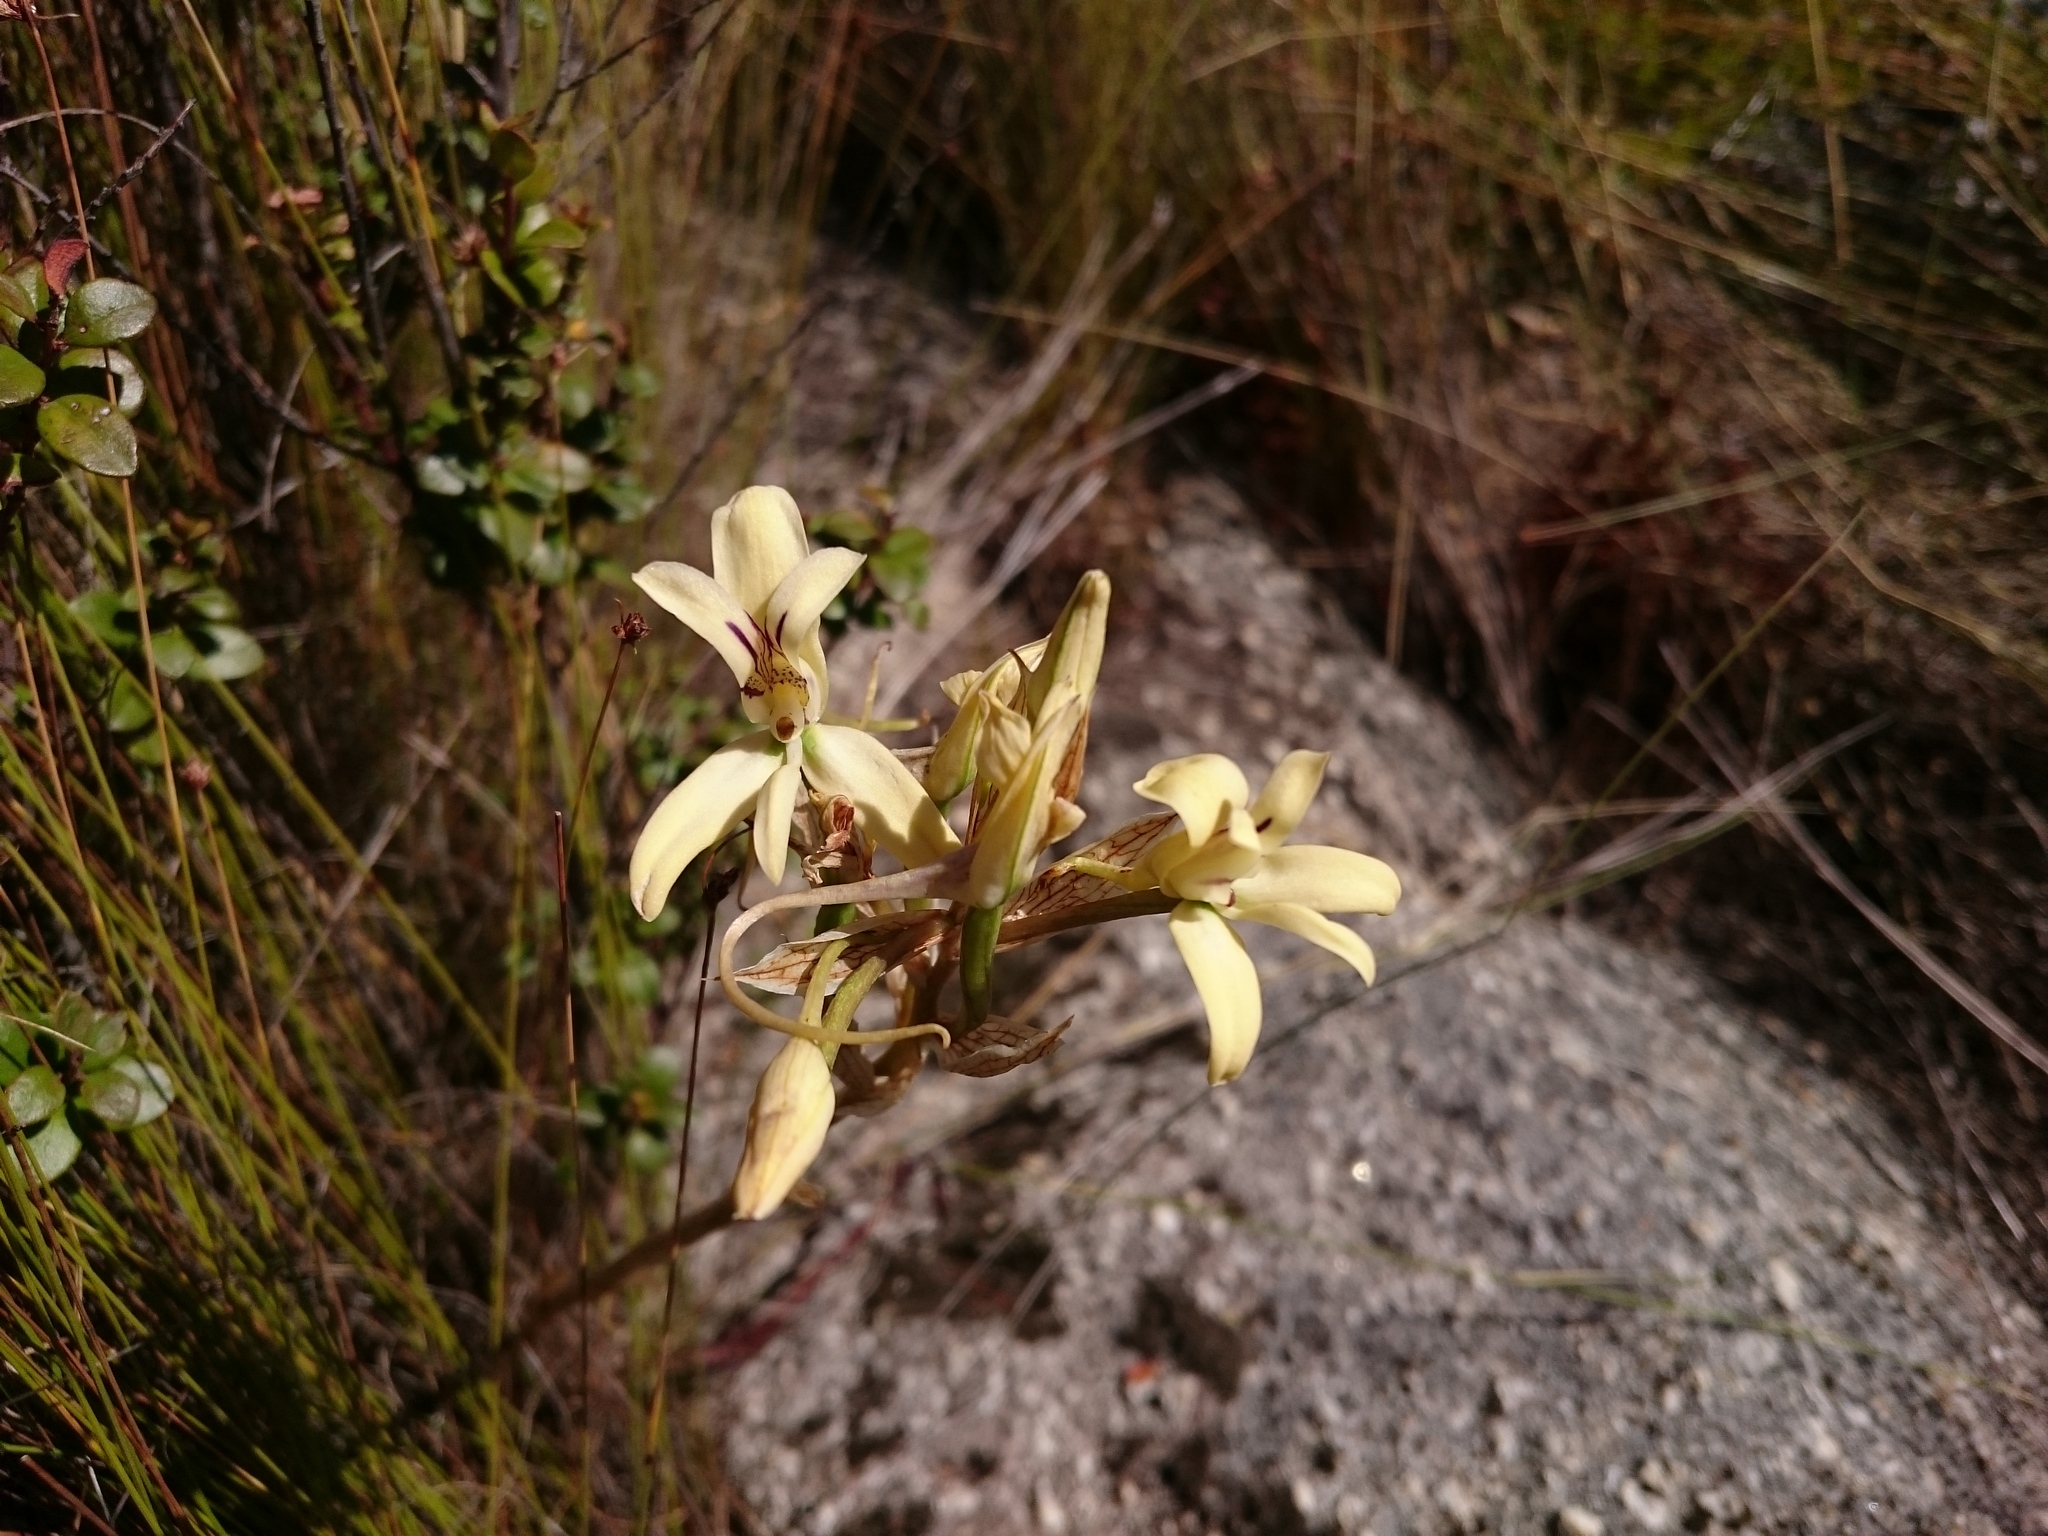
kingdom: Plantae
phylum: Tracheophyta
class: Liliopsida
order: Asparagales
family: Orchidaceae
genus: Disa
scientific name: Disa harveyana
